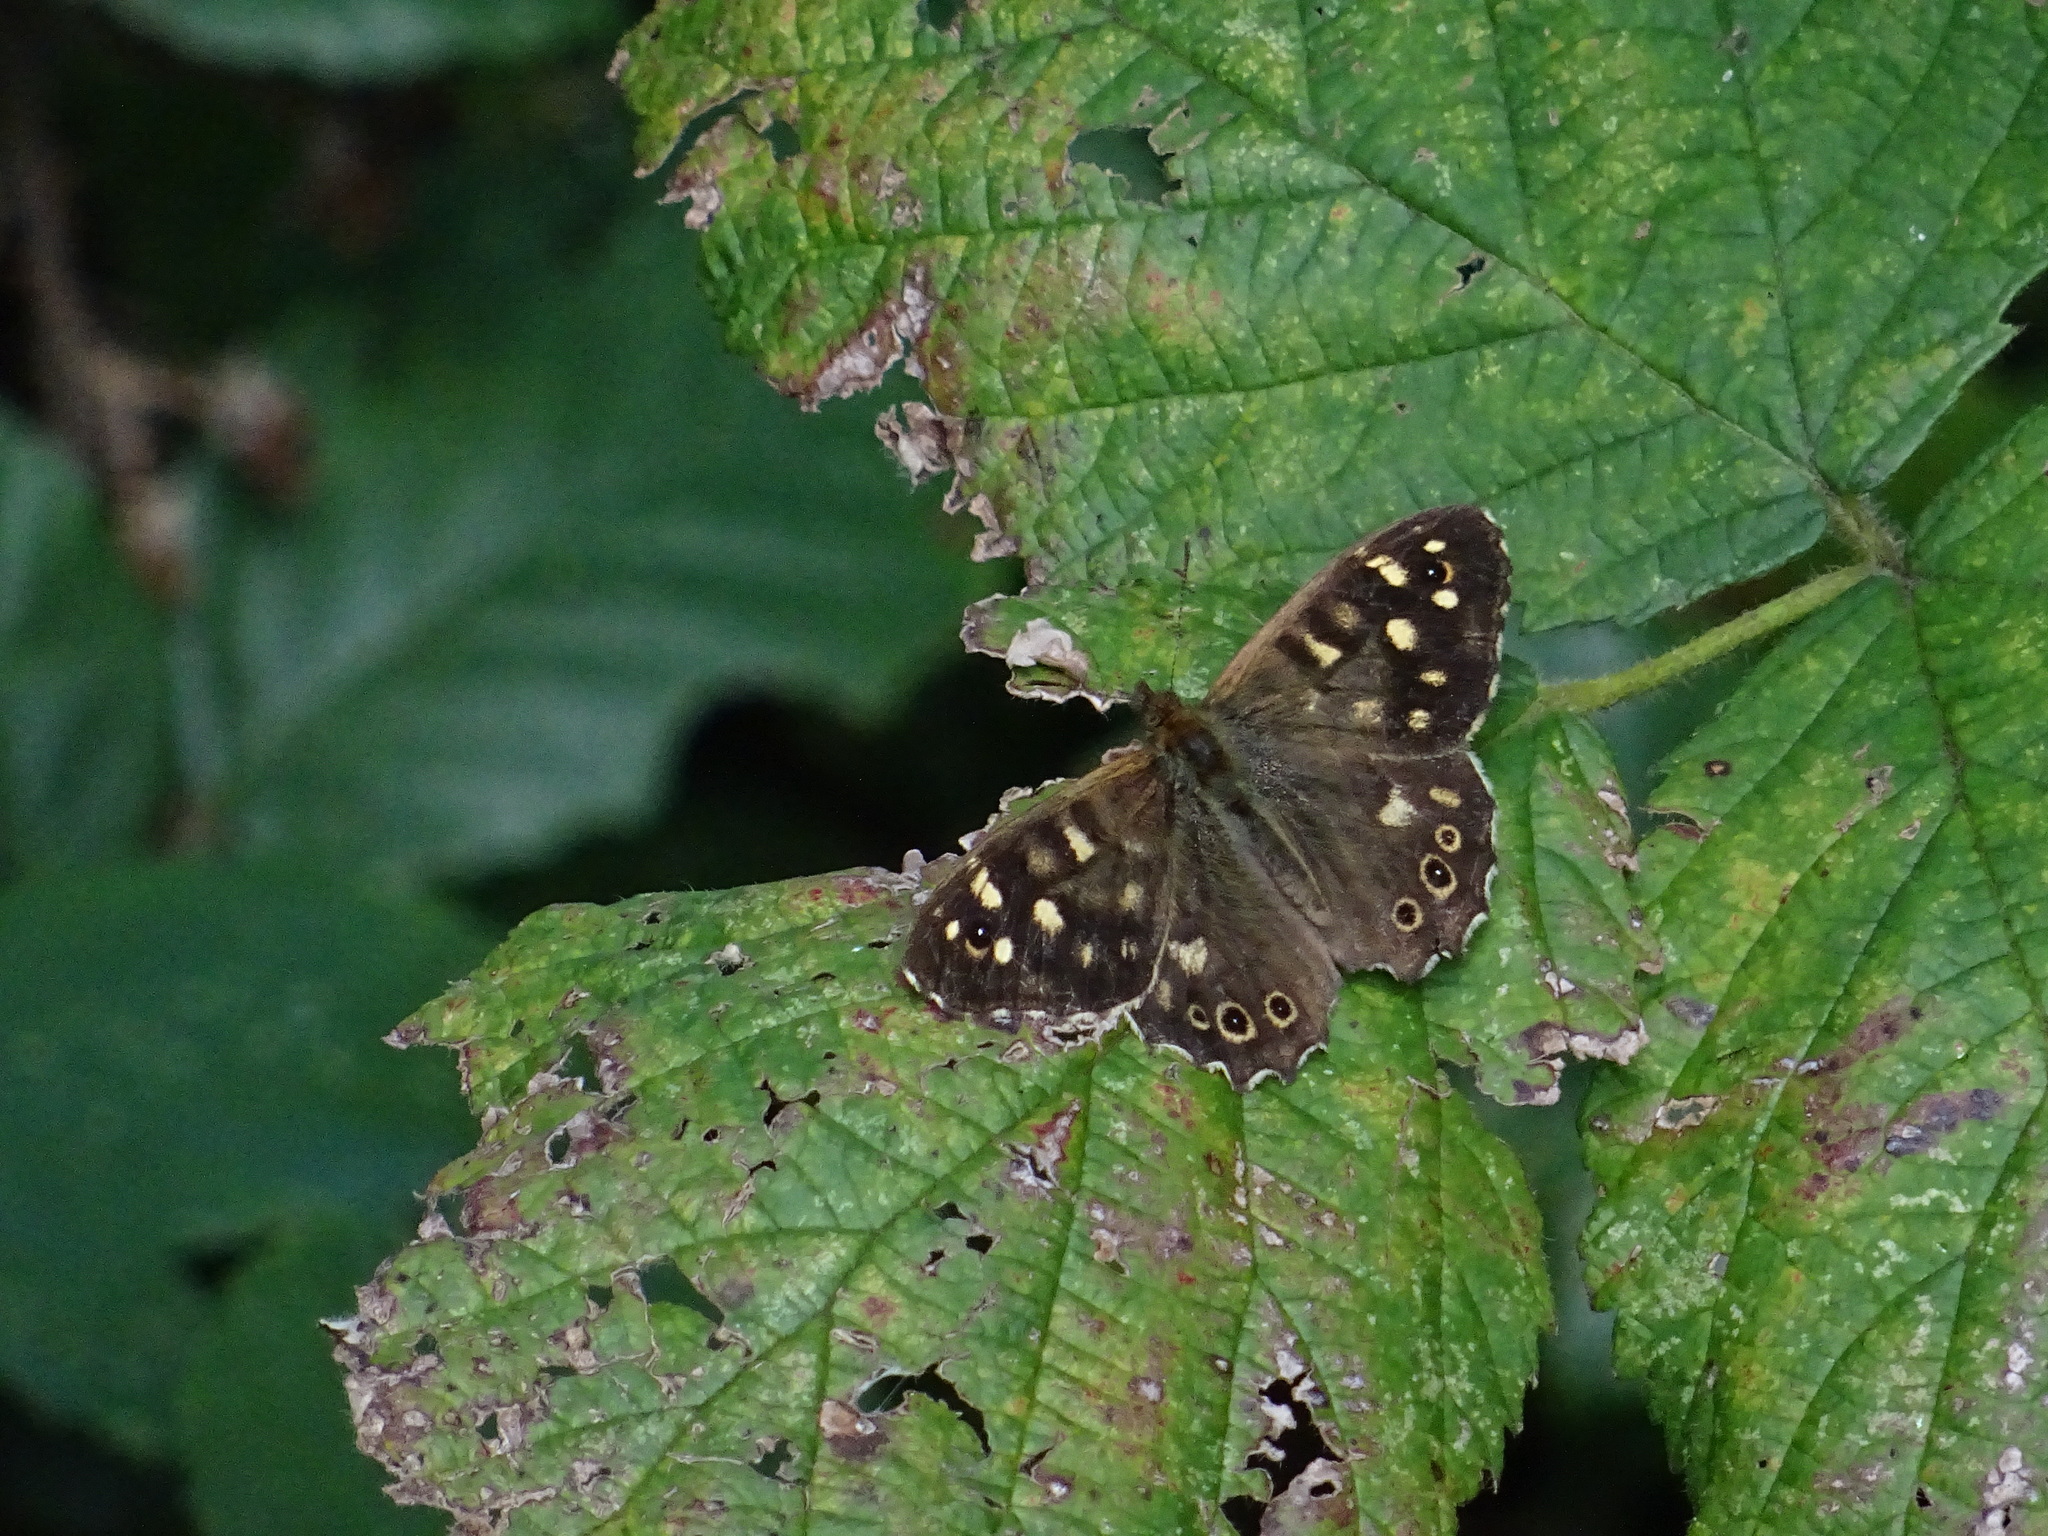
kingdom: Animalia
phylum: Arthropoda
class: Insecta
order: Lepidoptera
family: Nymphalidae
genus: Pararge
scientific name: Pararge aegeria
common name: Speckled wood
